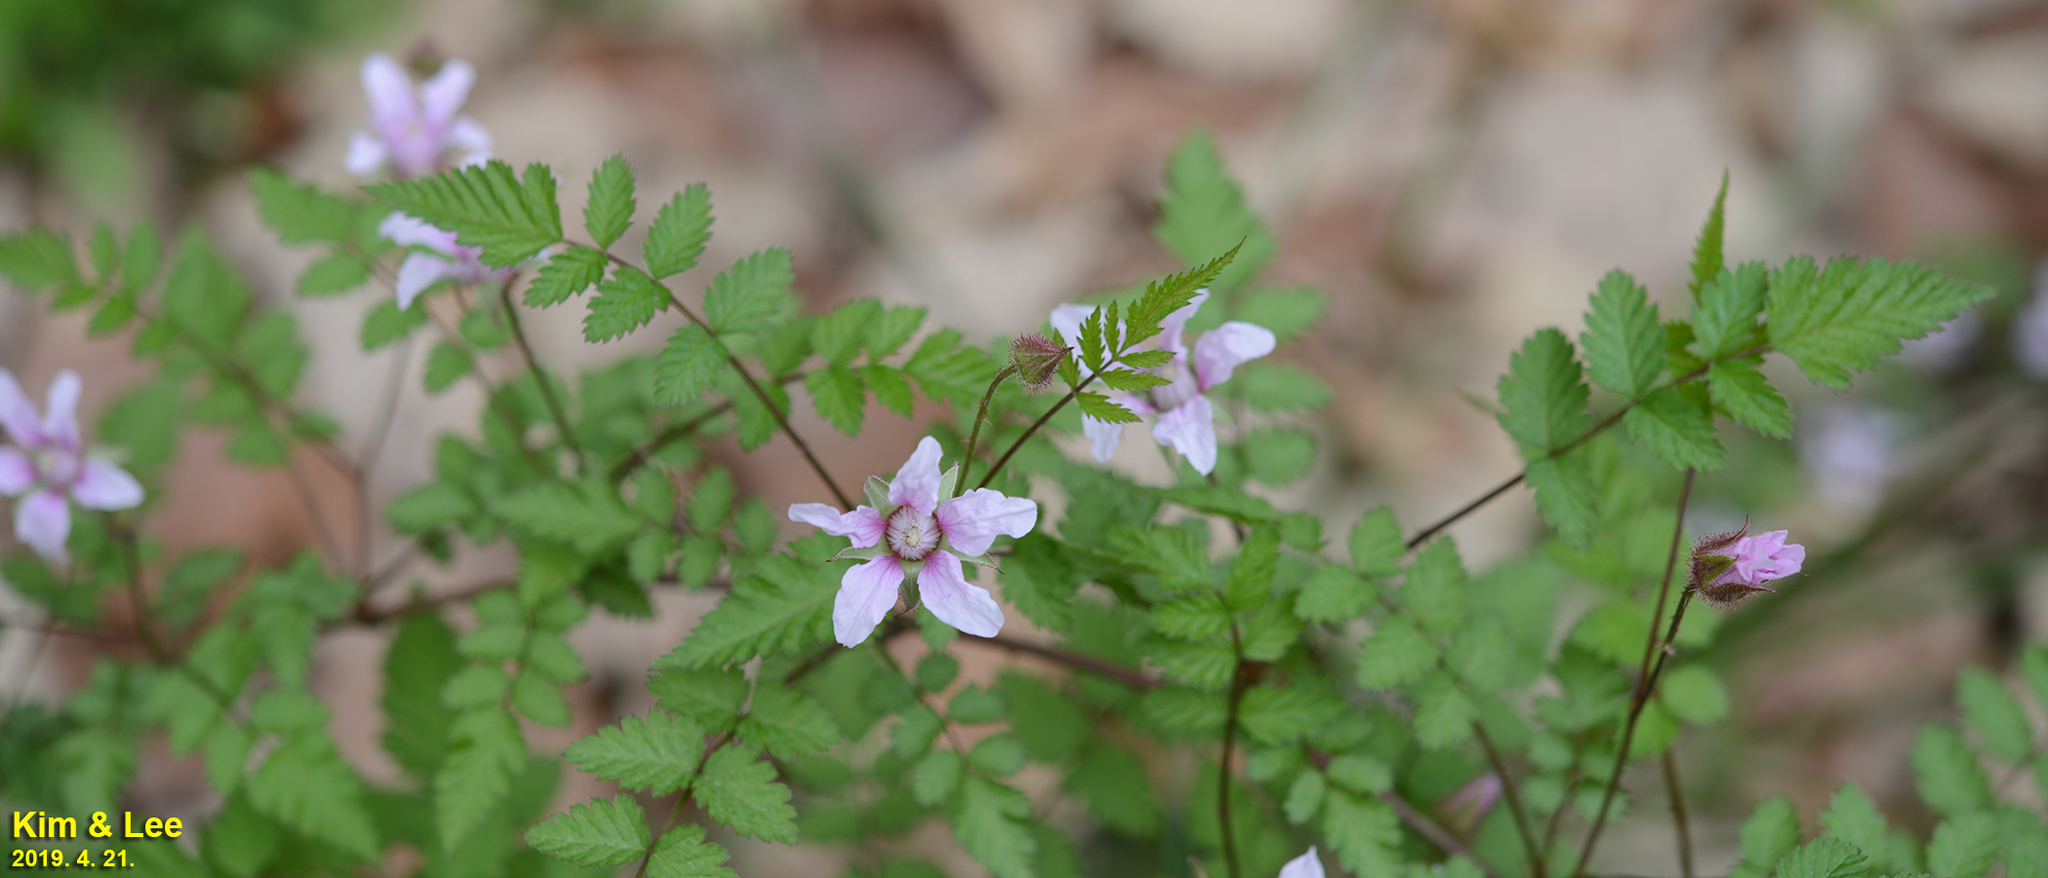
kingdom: Plantae
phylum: Tracheophyta
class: Magnoliopsida
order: Rosales
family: Rosaceae
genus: Rubus
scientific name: Rubus pungens
